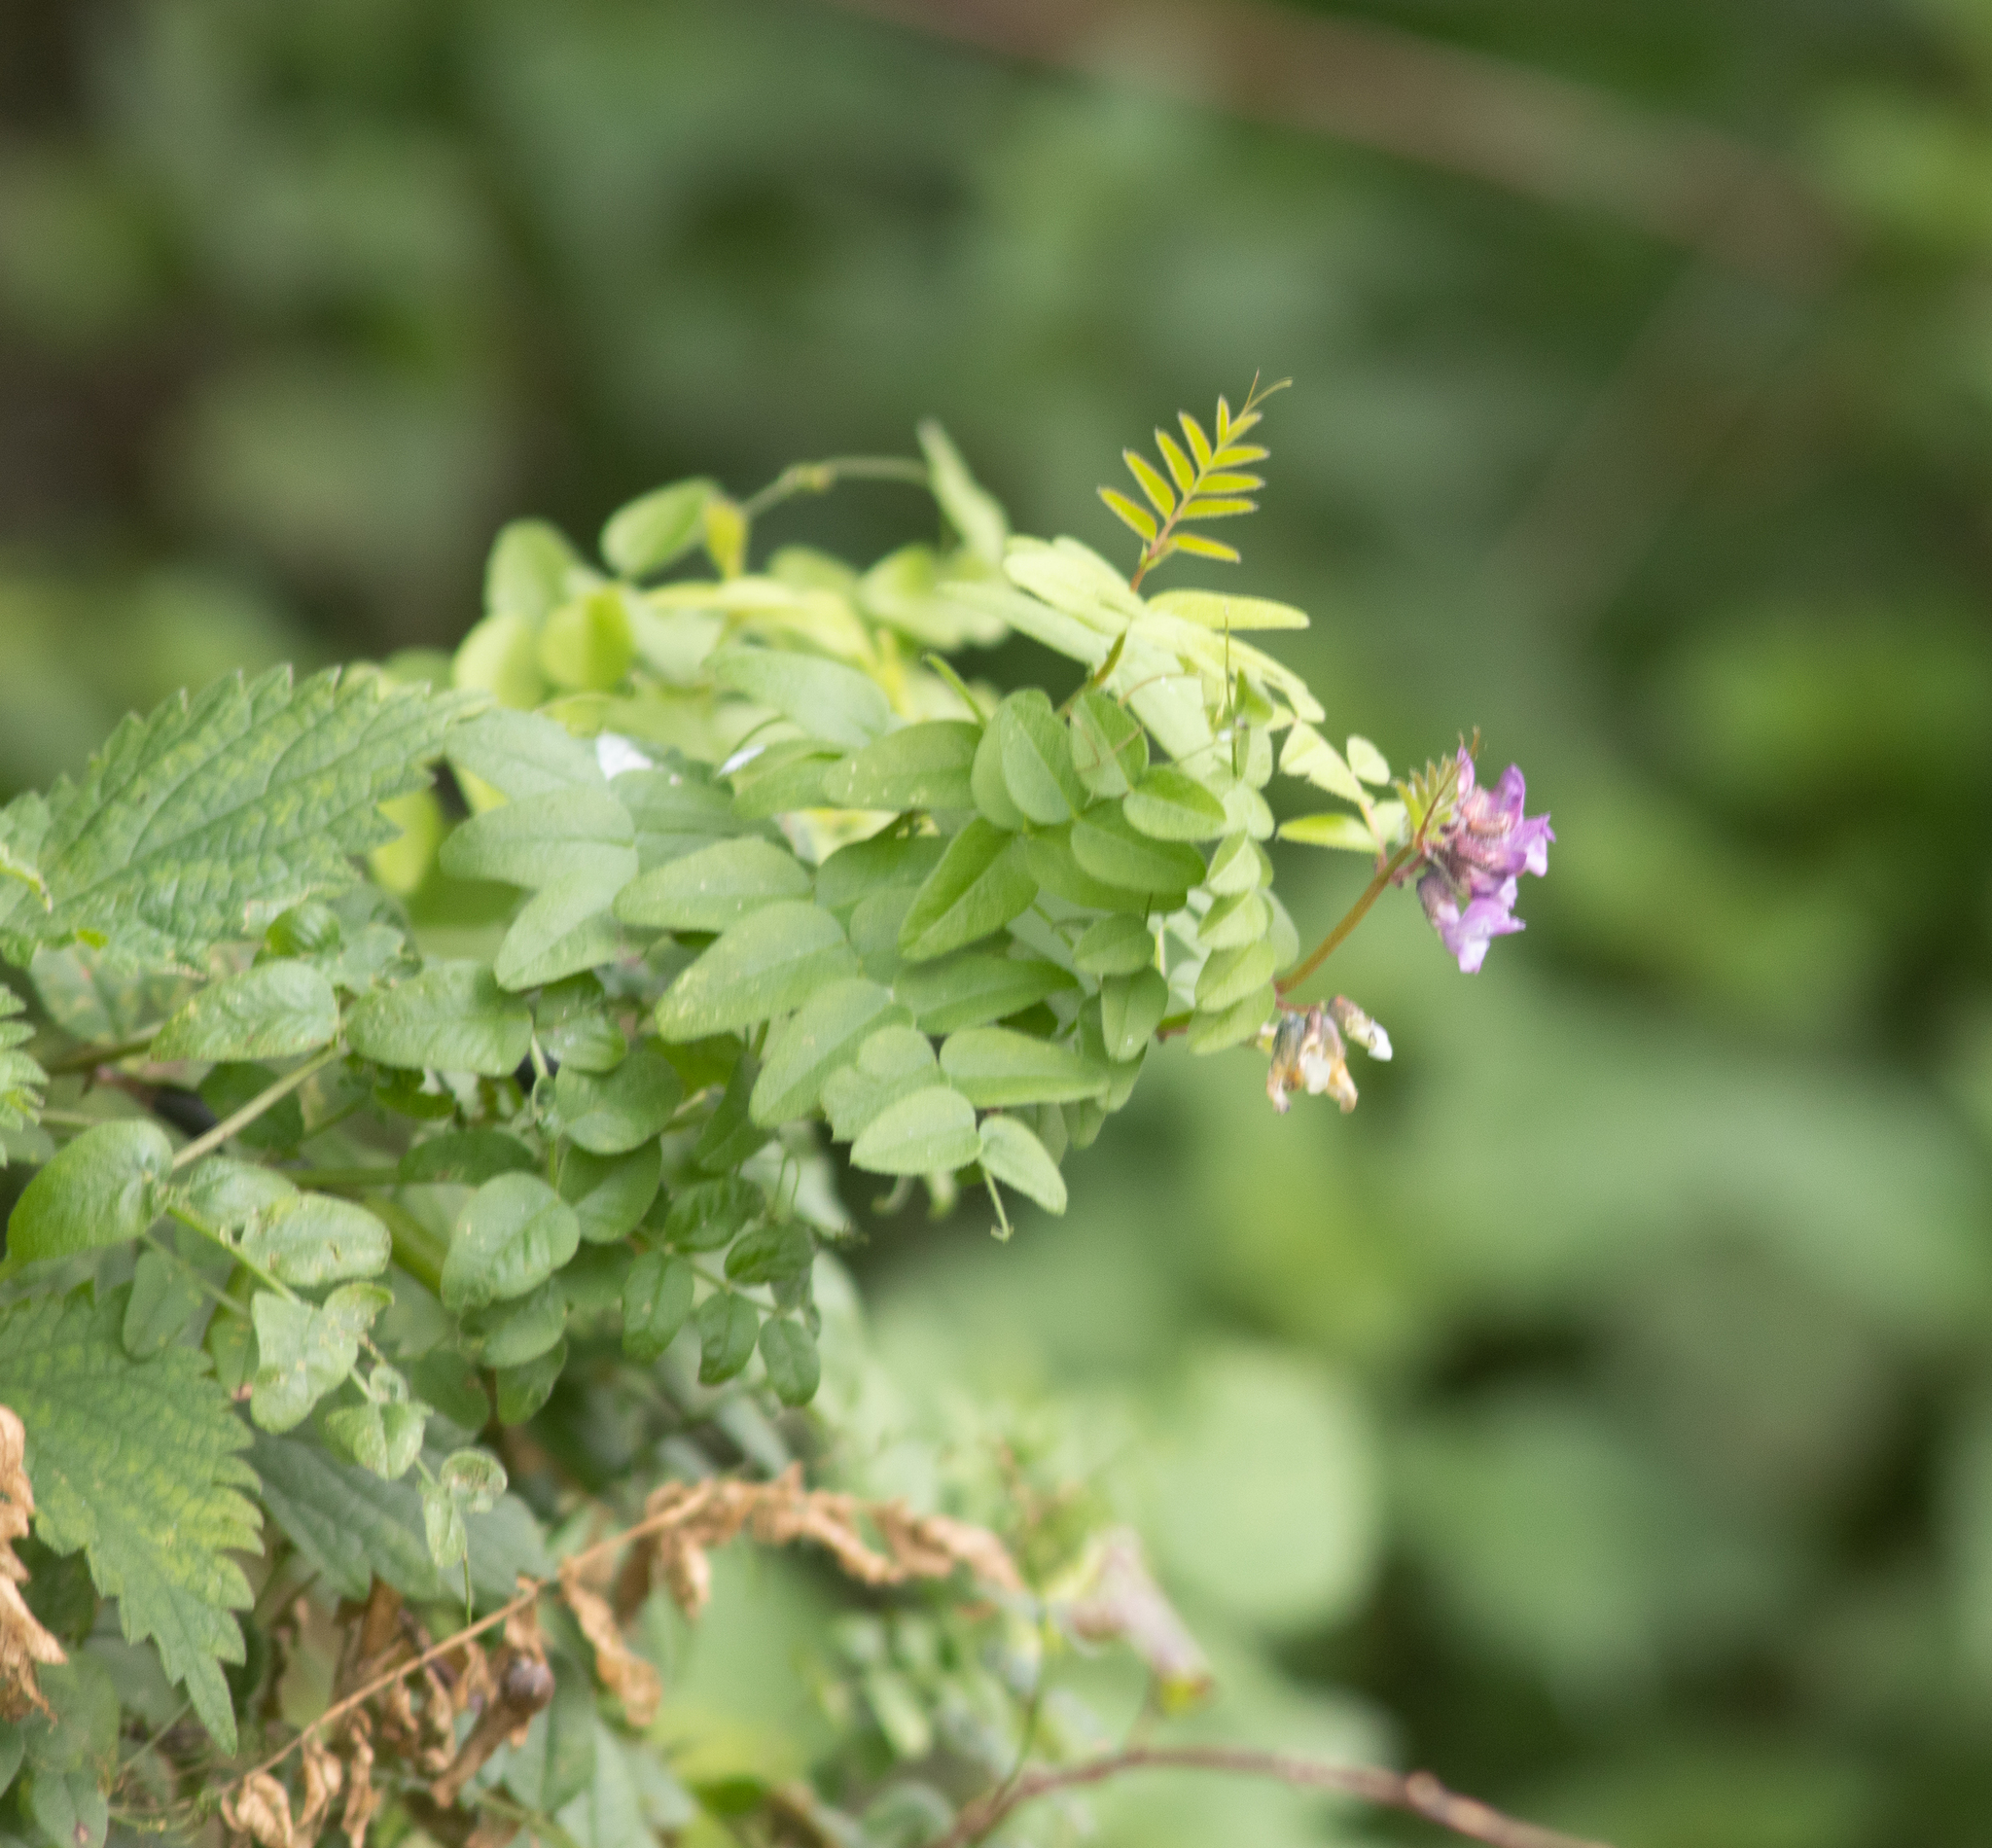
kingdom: Plantae
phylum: Tracheophyta
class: Magnoliopsida
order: Fabales
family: Fabaceae
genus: Vicia
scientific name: Vicia sepium
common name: Bush vetch
